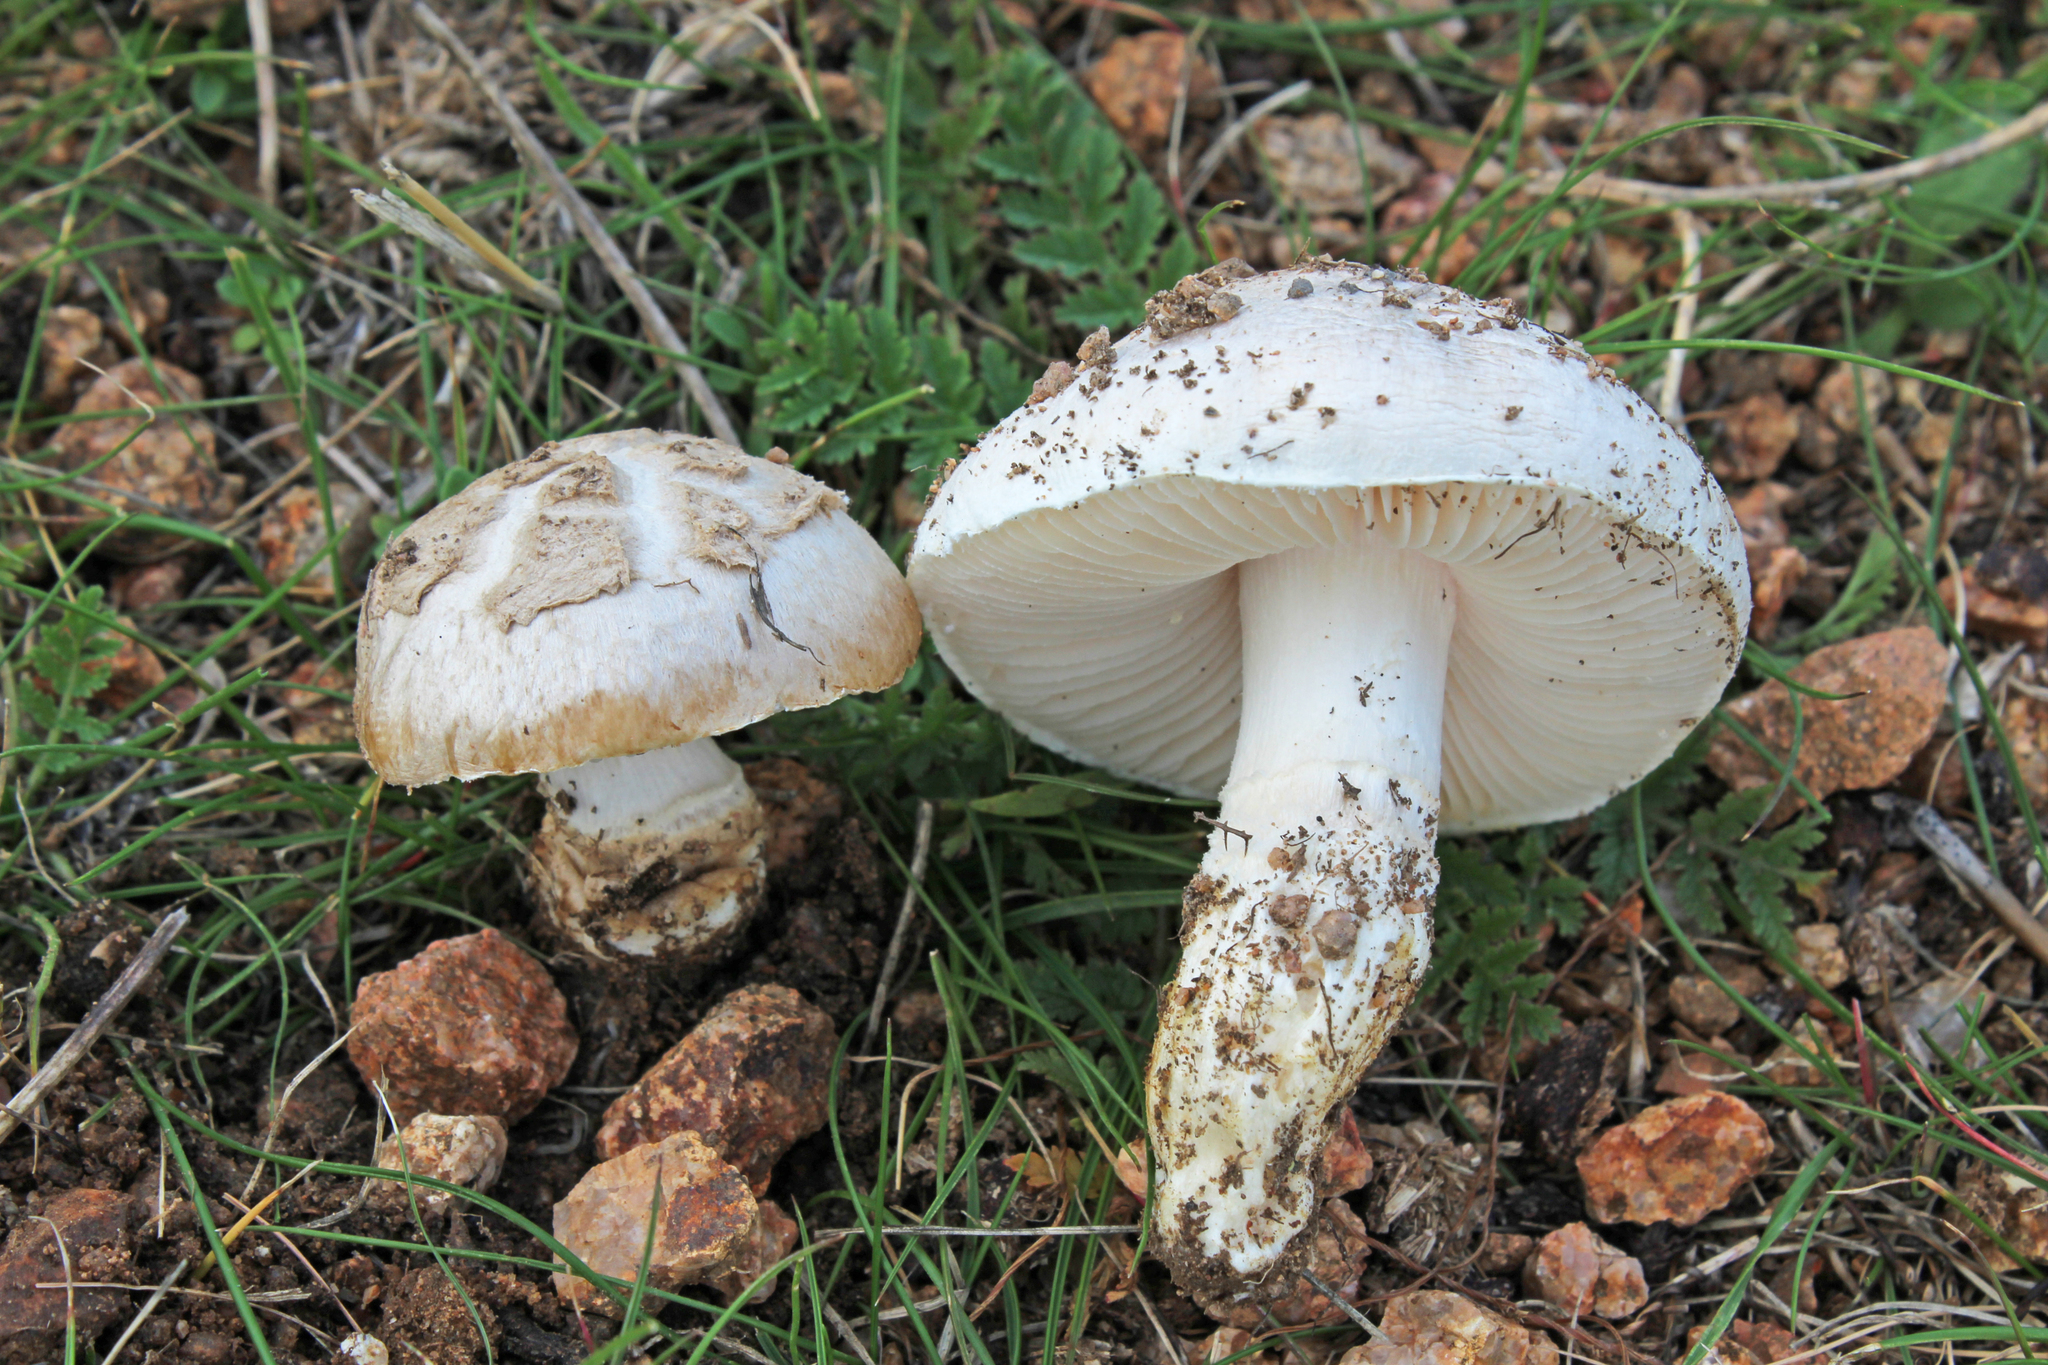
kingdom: Fungi
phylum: Basidiomycota
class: Agaricomycetes
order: Agaricales
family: Amanitaceae
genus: Amanita
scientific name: Amanita singeri
